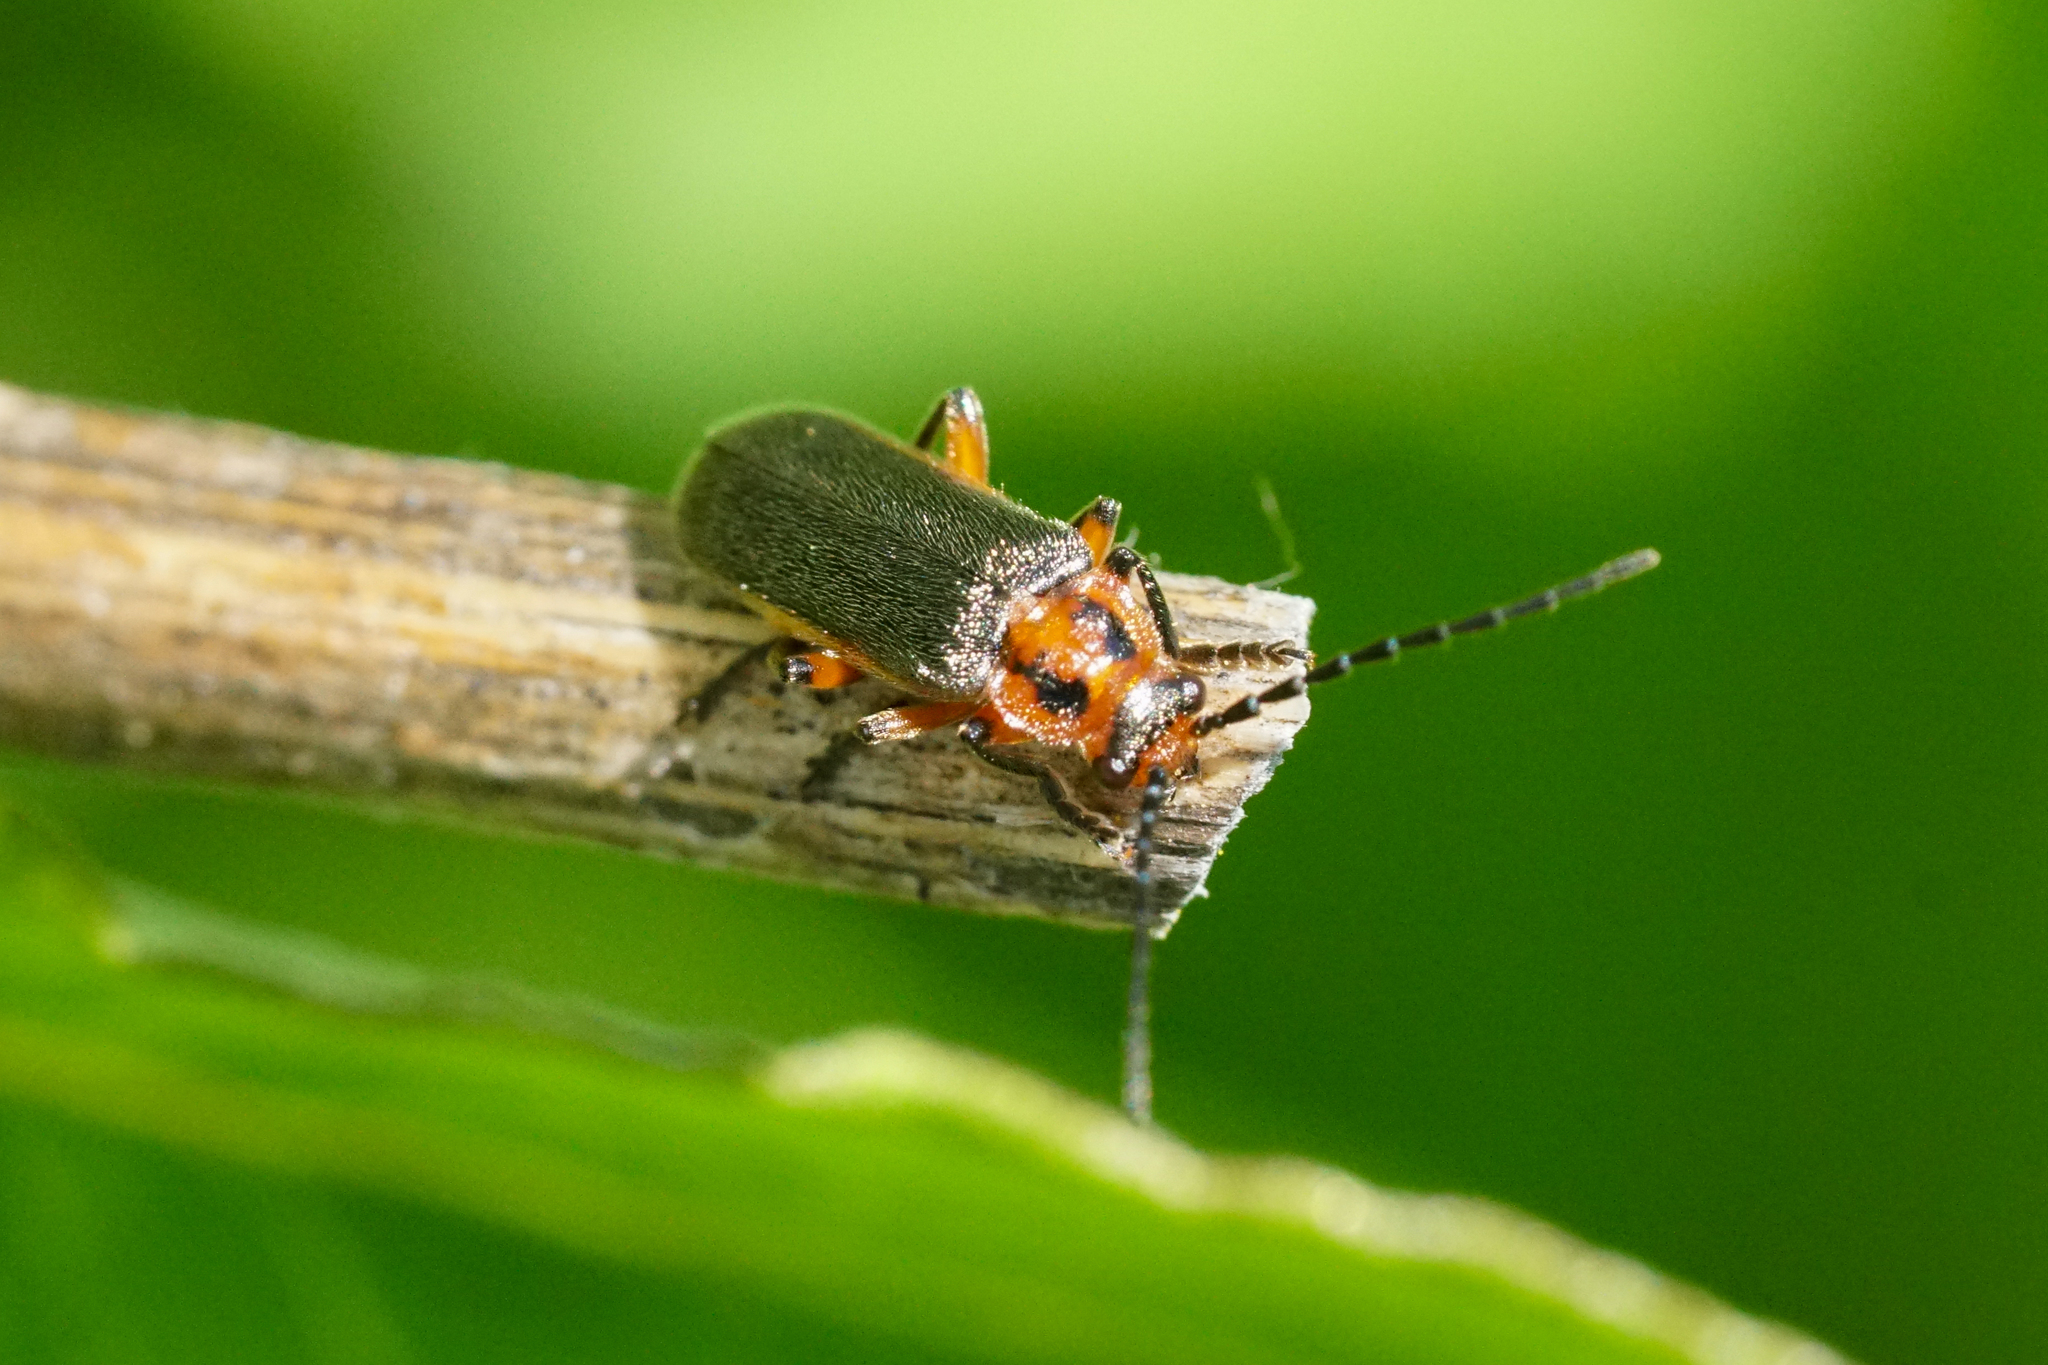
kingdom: Animalia
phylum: Arthropoda
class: Insecta
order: Coleoptera
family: Cantharidae
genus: Atalantycha
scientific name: Atalantycha bilineata
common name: Two-lined leatherwing
